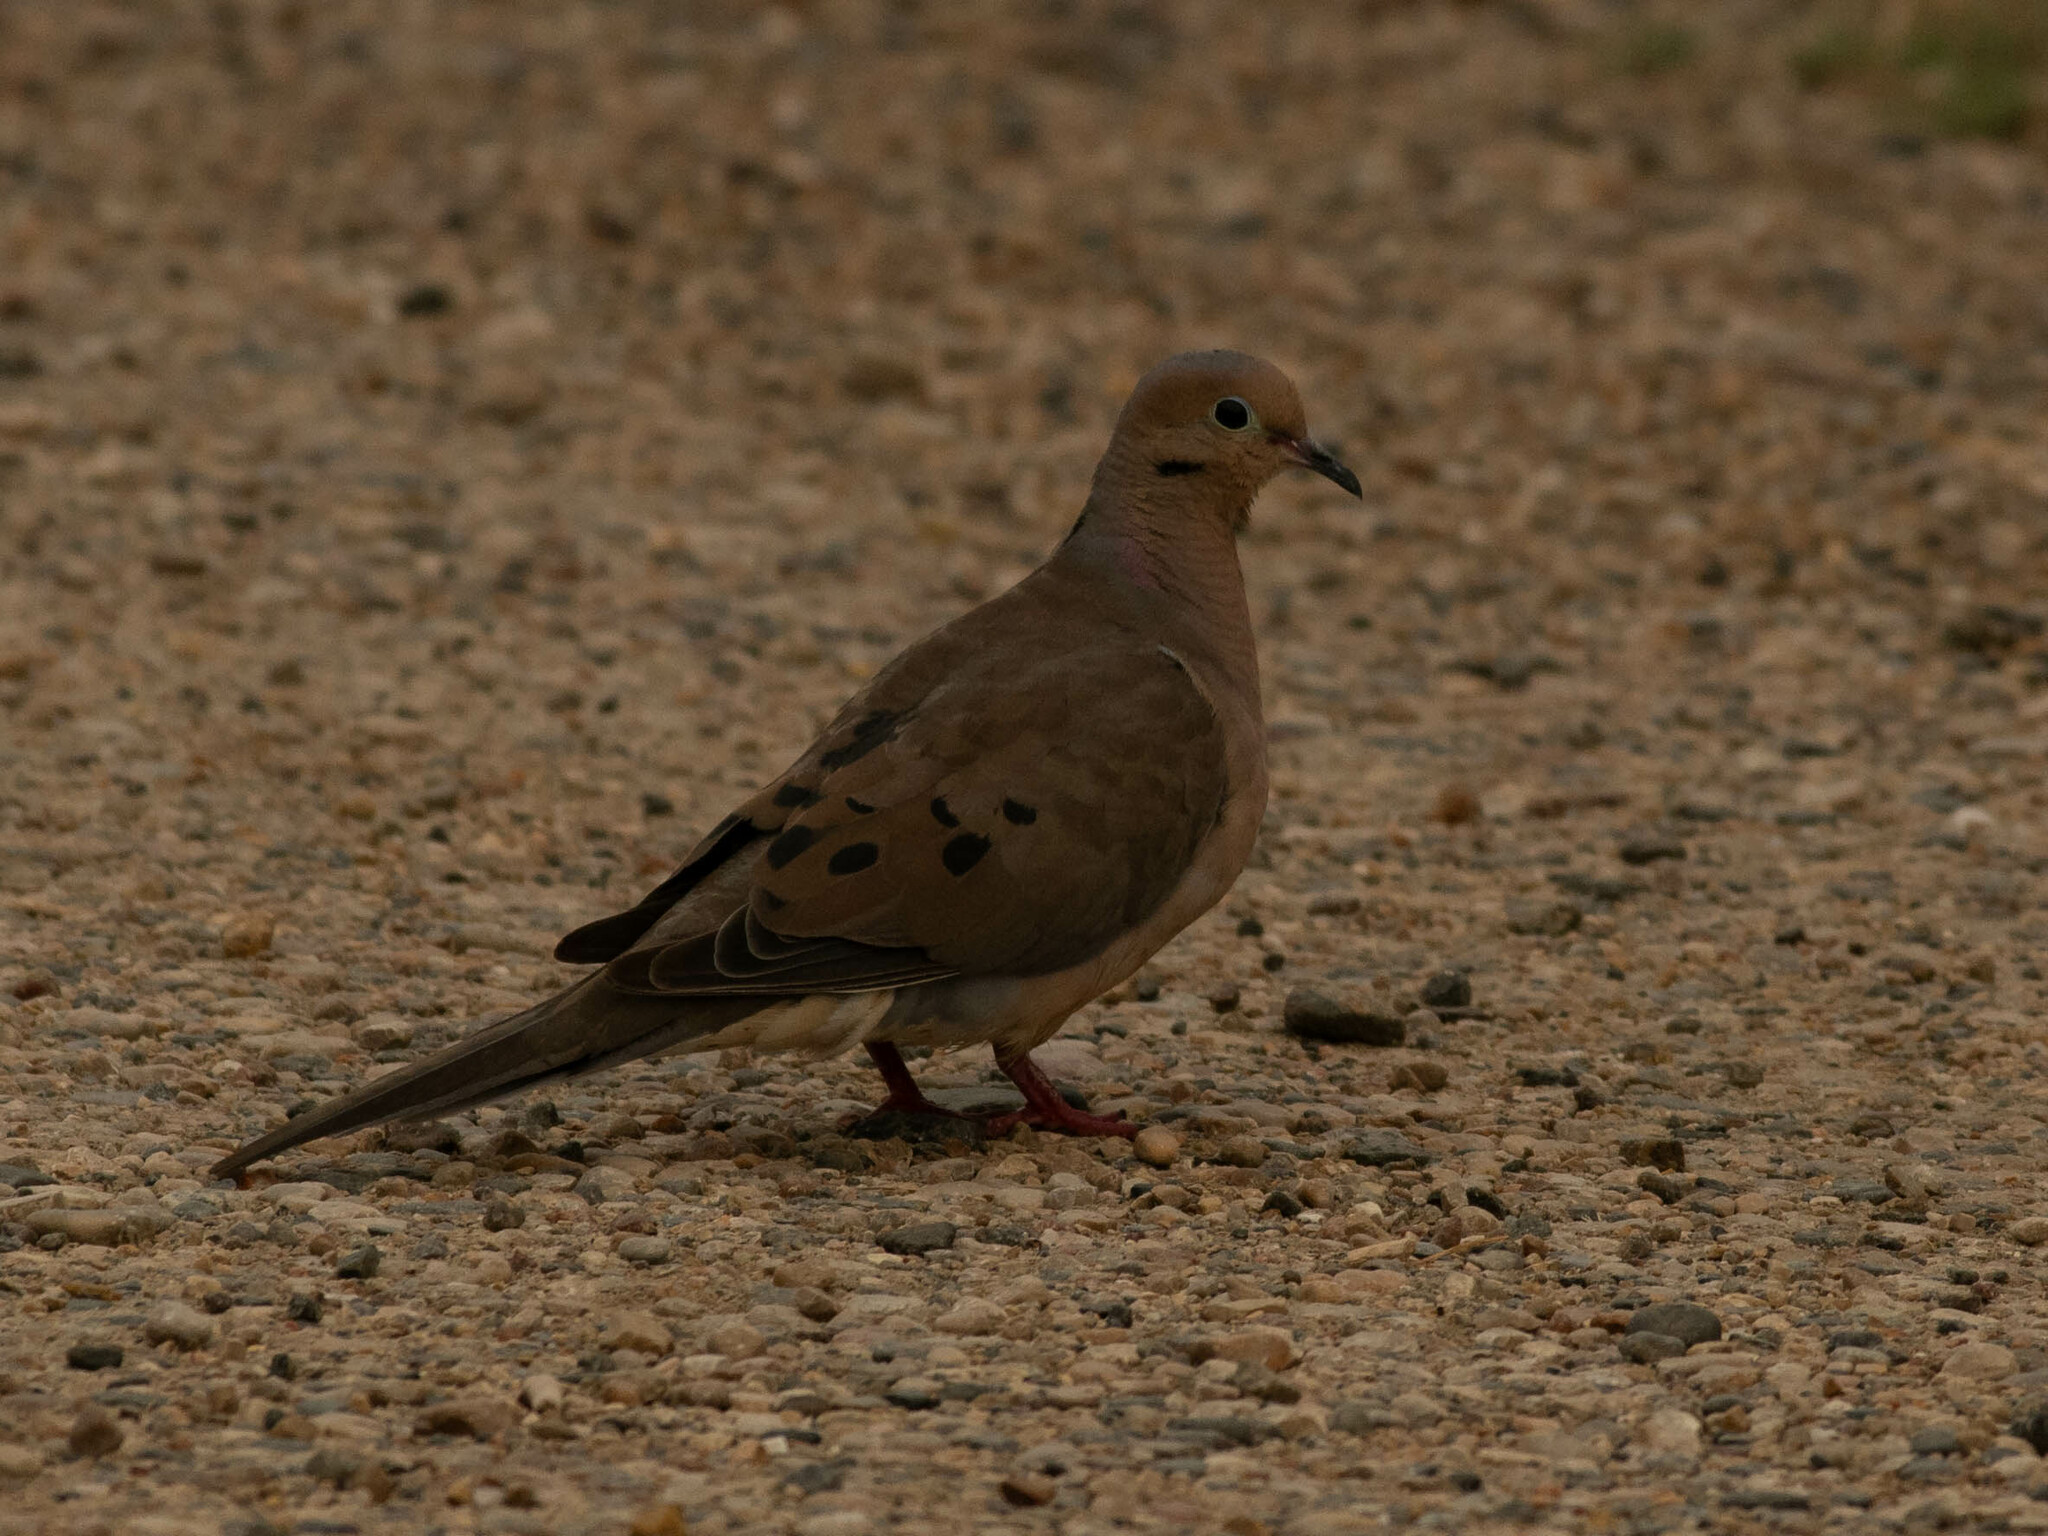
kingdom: Animalia
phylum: Chordata
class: Aves
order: Columbiformes
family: Columbidae
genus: Zenaida
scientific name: Zenaida macroura
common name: Mourning dove
